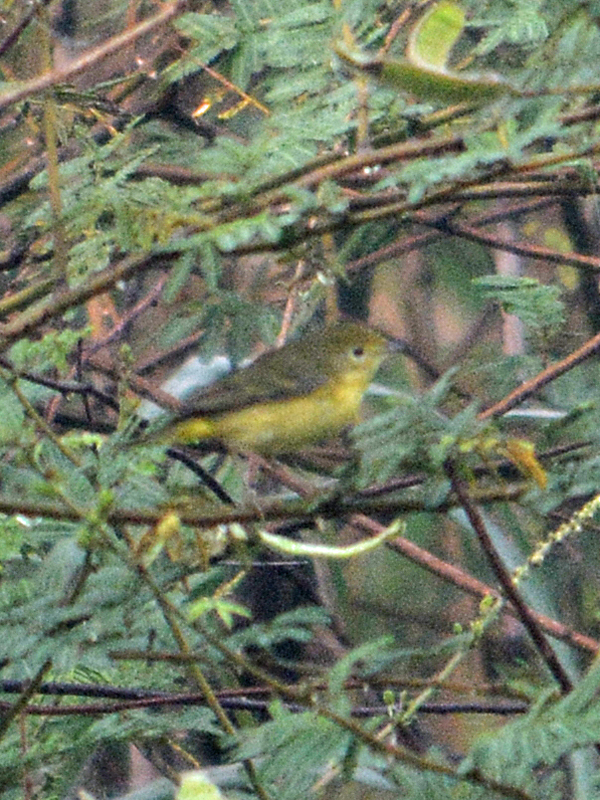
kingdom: Animalia
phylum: Chordata
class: Aves
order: Passeriformes
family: Parulidae
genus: Setophaga
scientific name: Setophaga petechia
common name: Yellow warbler
